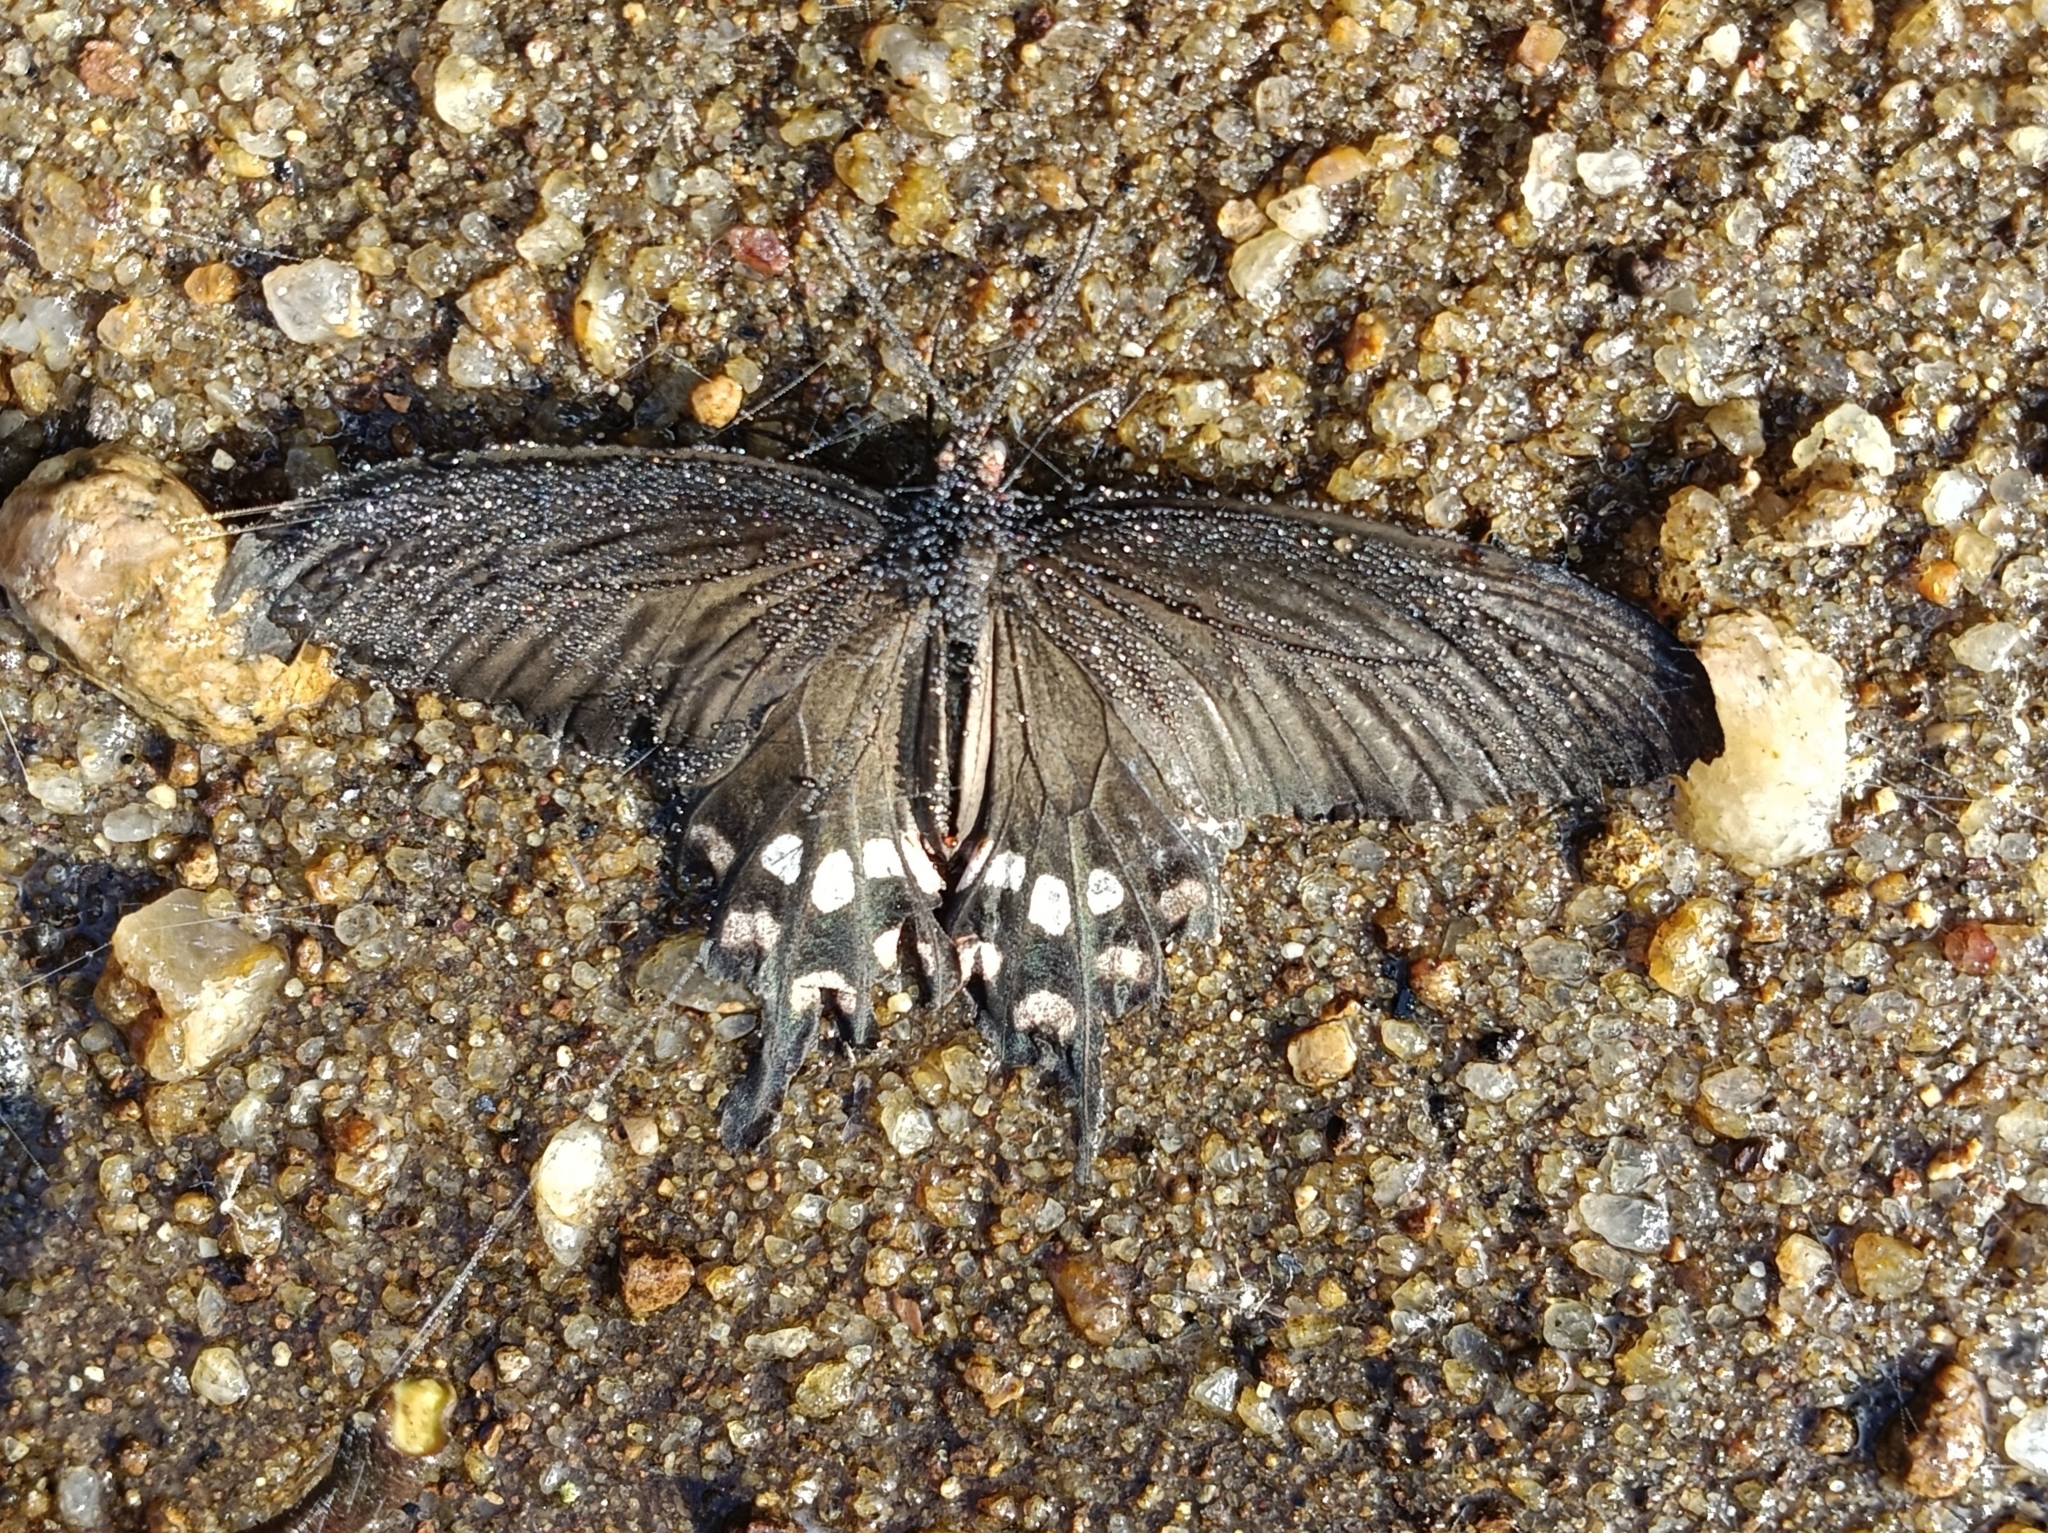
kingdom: Animalia
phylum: Arthropoda
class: Insecta
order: Lepidoptera
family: Papilionidae
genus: Pachliopta
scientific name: Pachliopta aristolochiae
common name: Common rose
